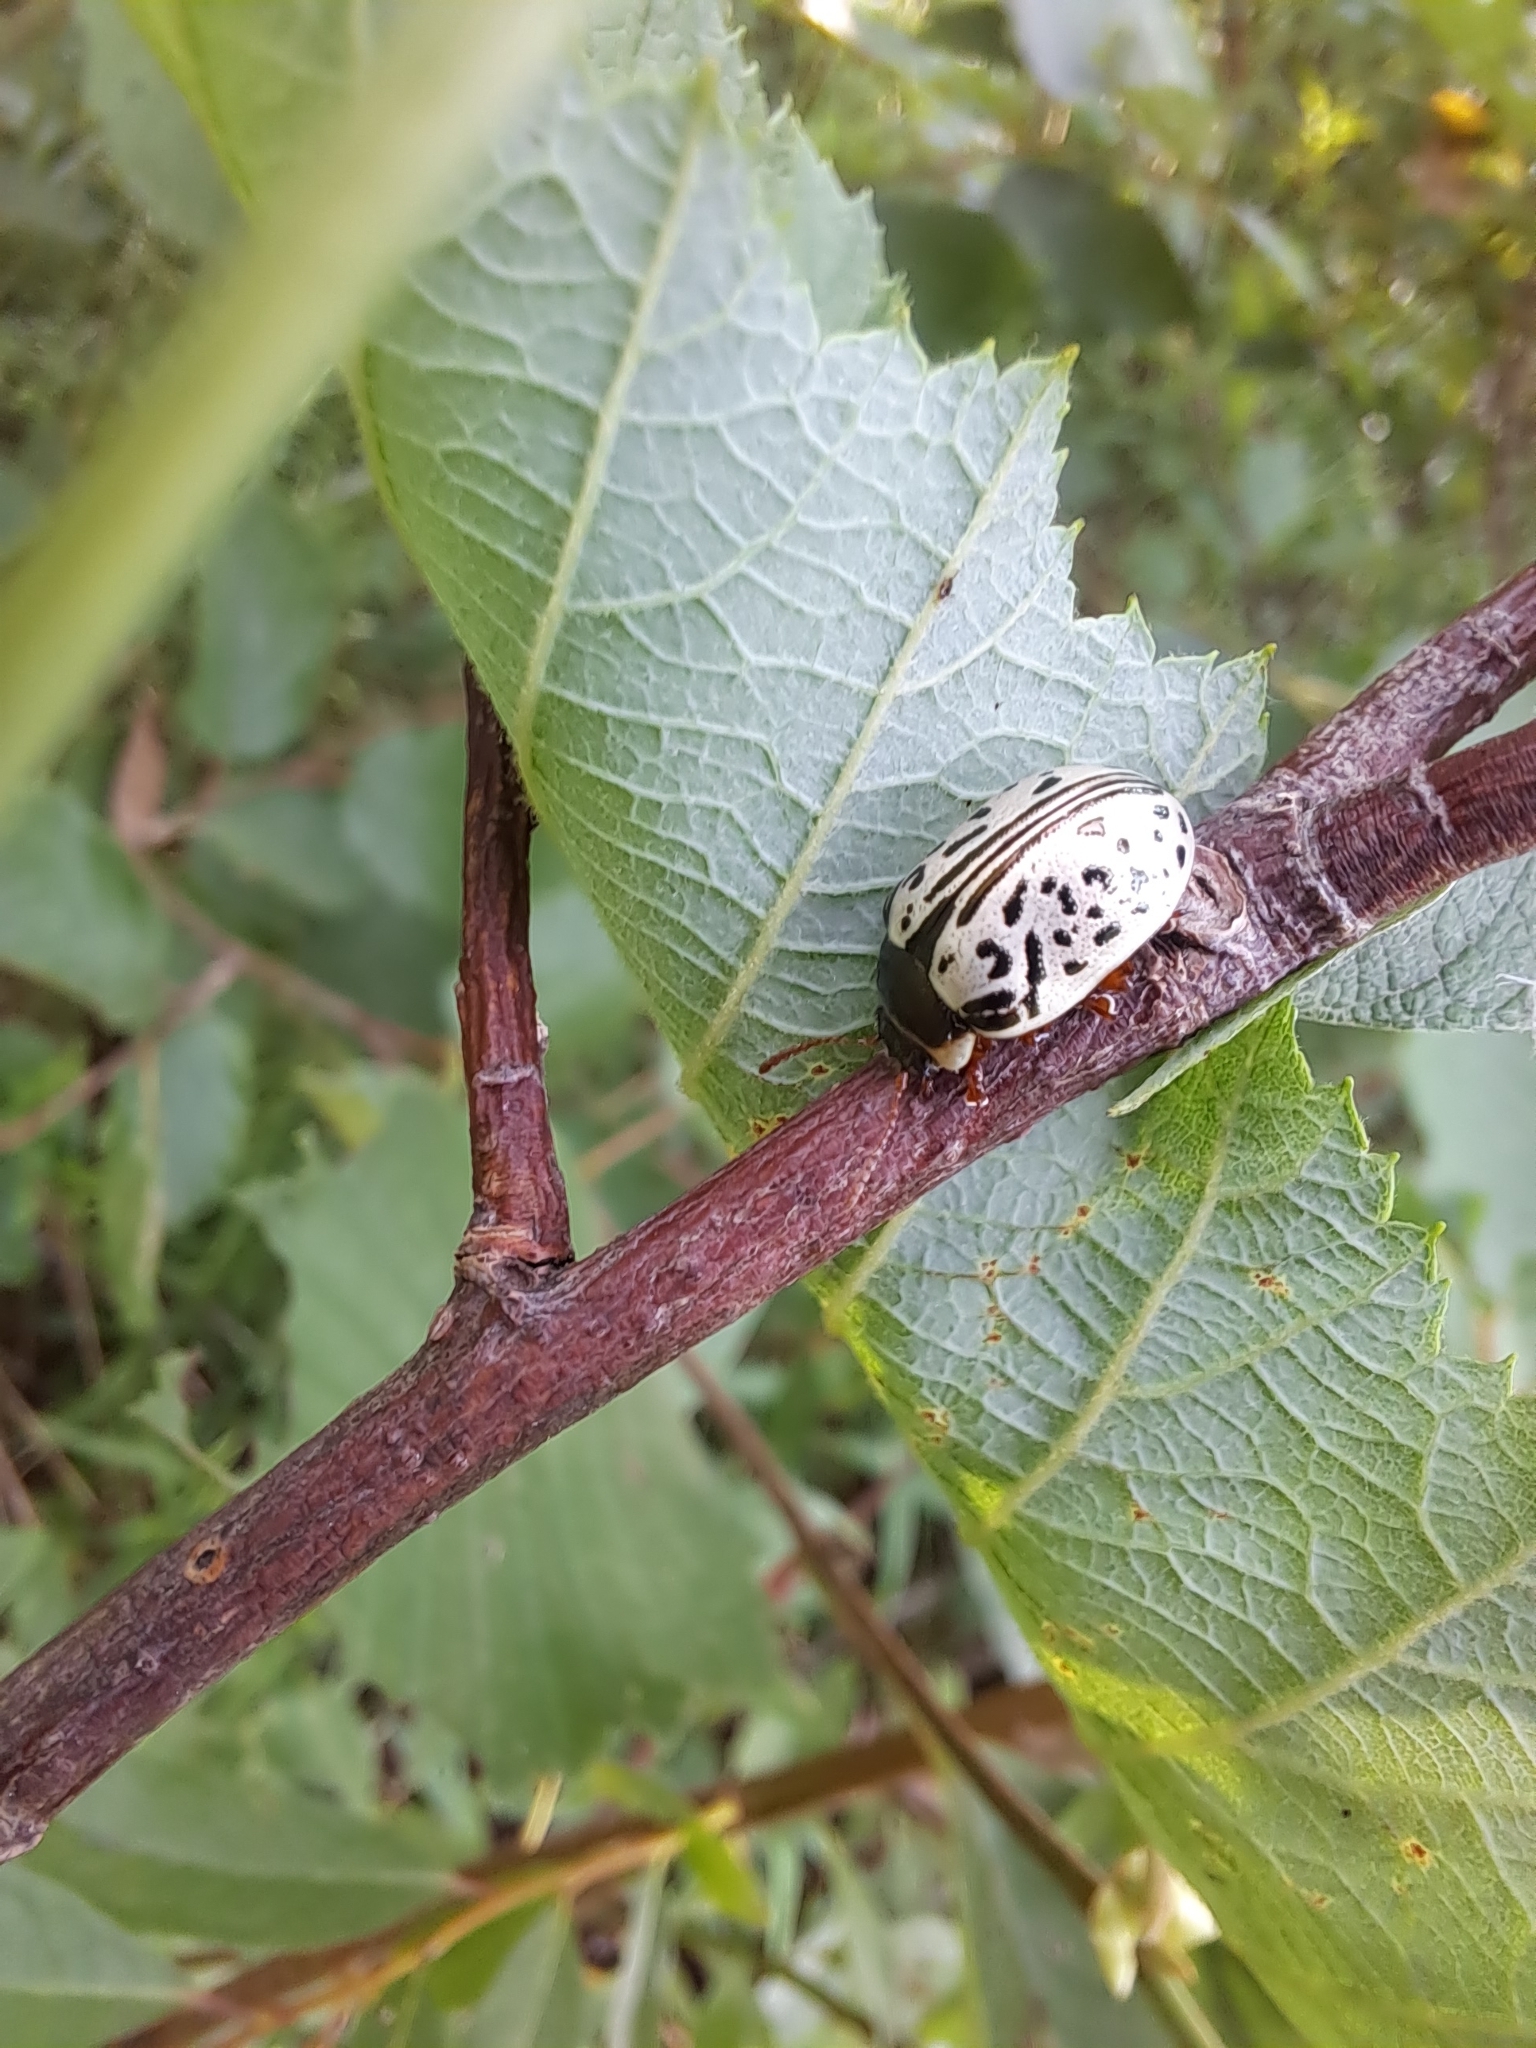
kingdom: Animalia
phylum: Arthropoda
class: Insecta
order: Coleoptera
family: Chrysomelidae
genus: Calligrapha
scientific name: Calligrapha multipunctata
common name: Common willow calligrapher beetle
